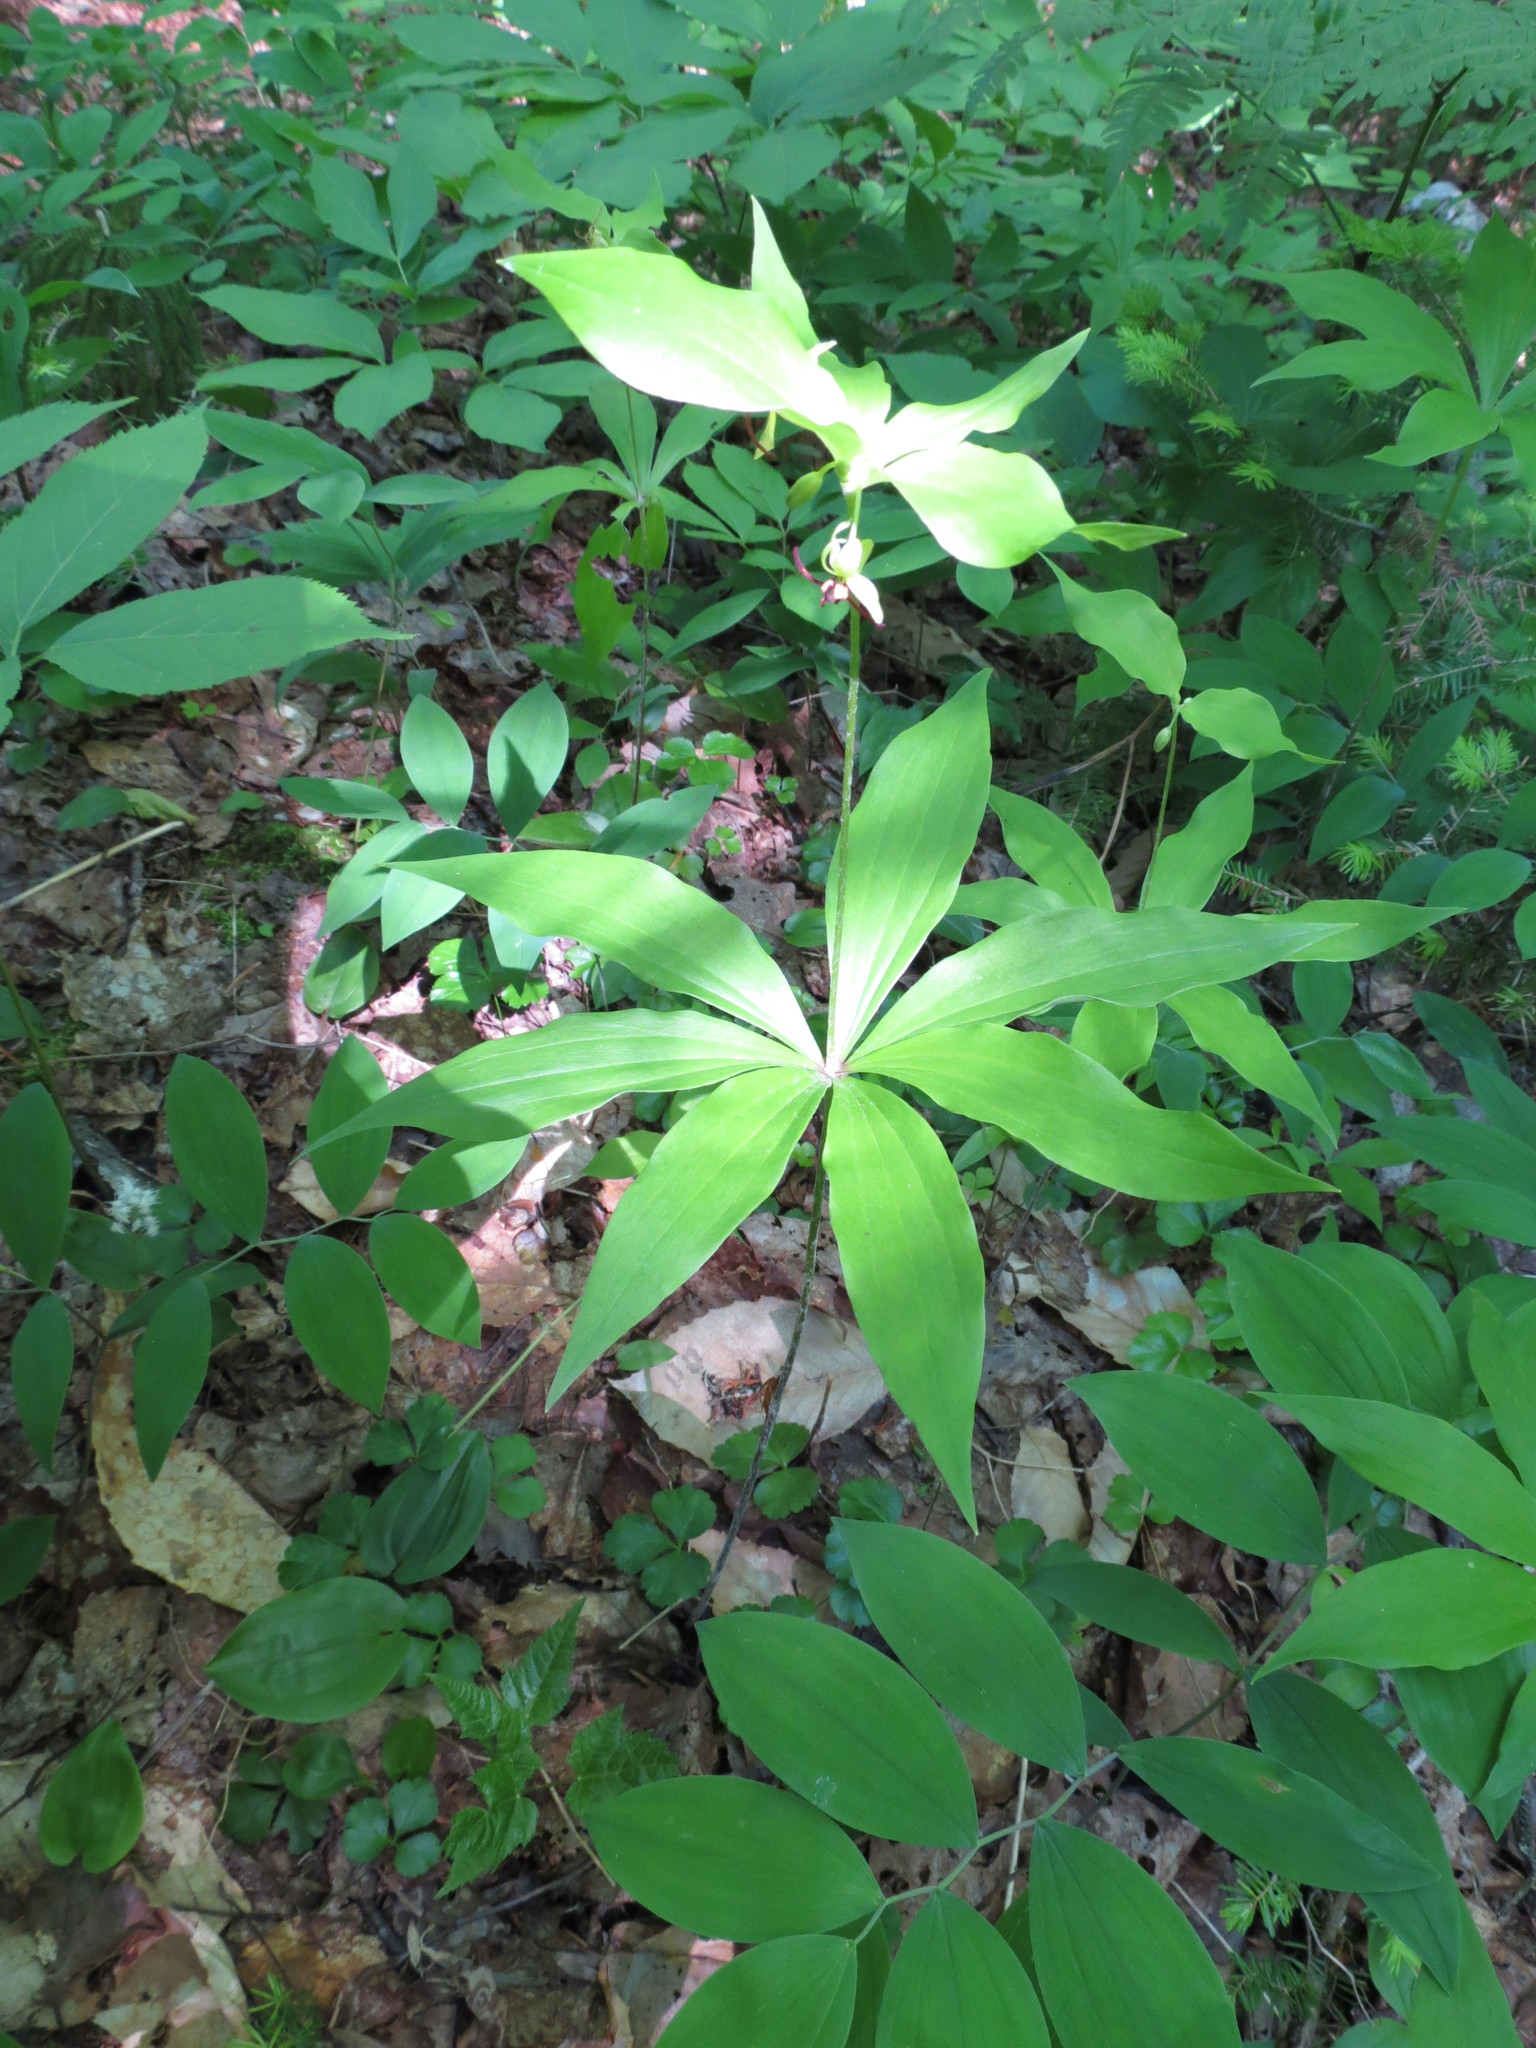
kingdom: Plantae
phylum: Tracheophyta
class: Liliopsida
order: Liliales
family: Liliaceae
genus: Medeola
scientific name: Medeola virginiana
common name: Indian cucumber-root
